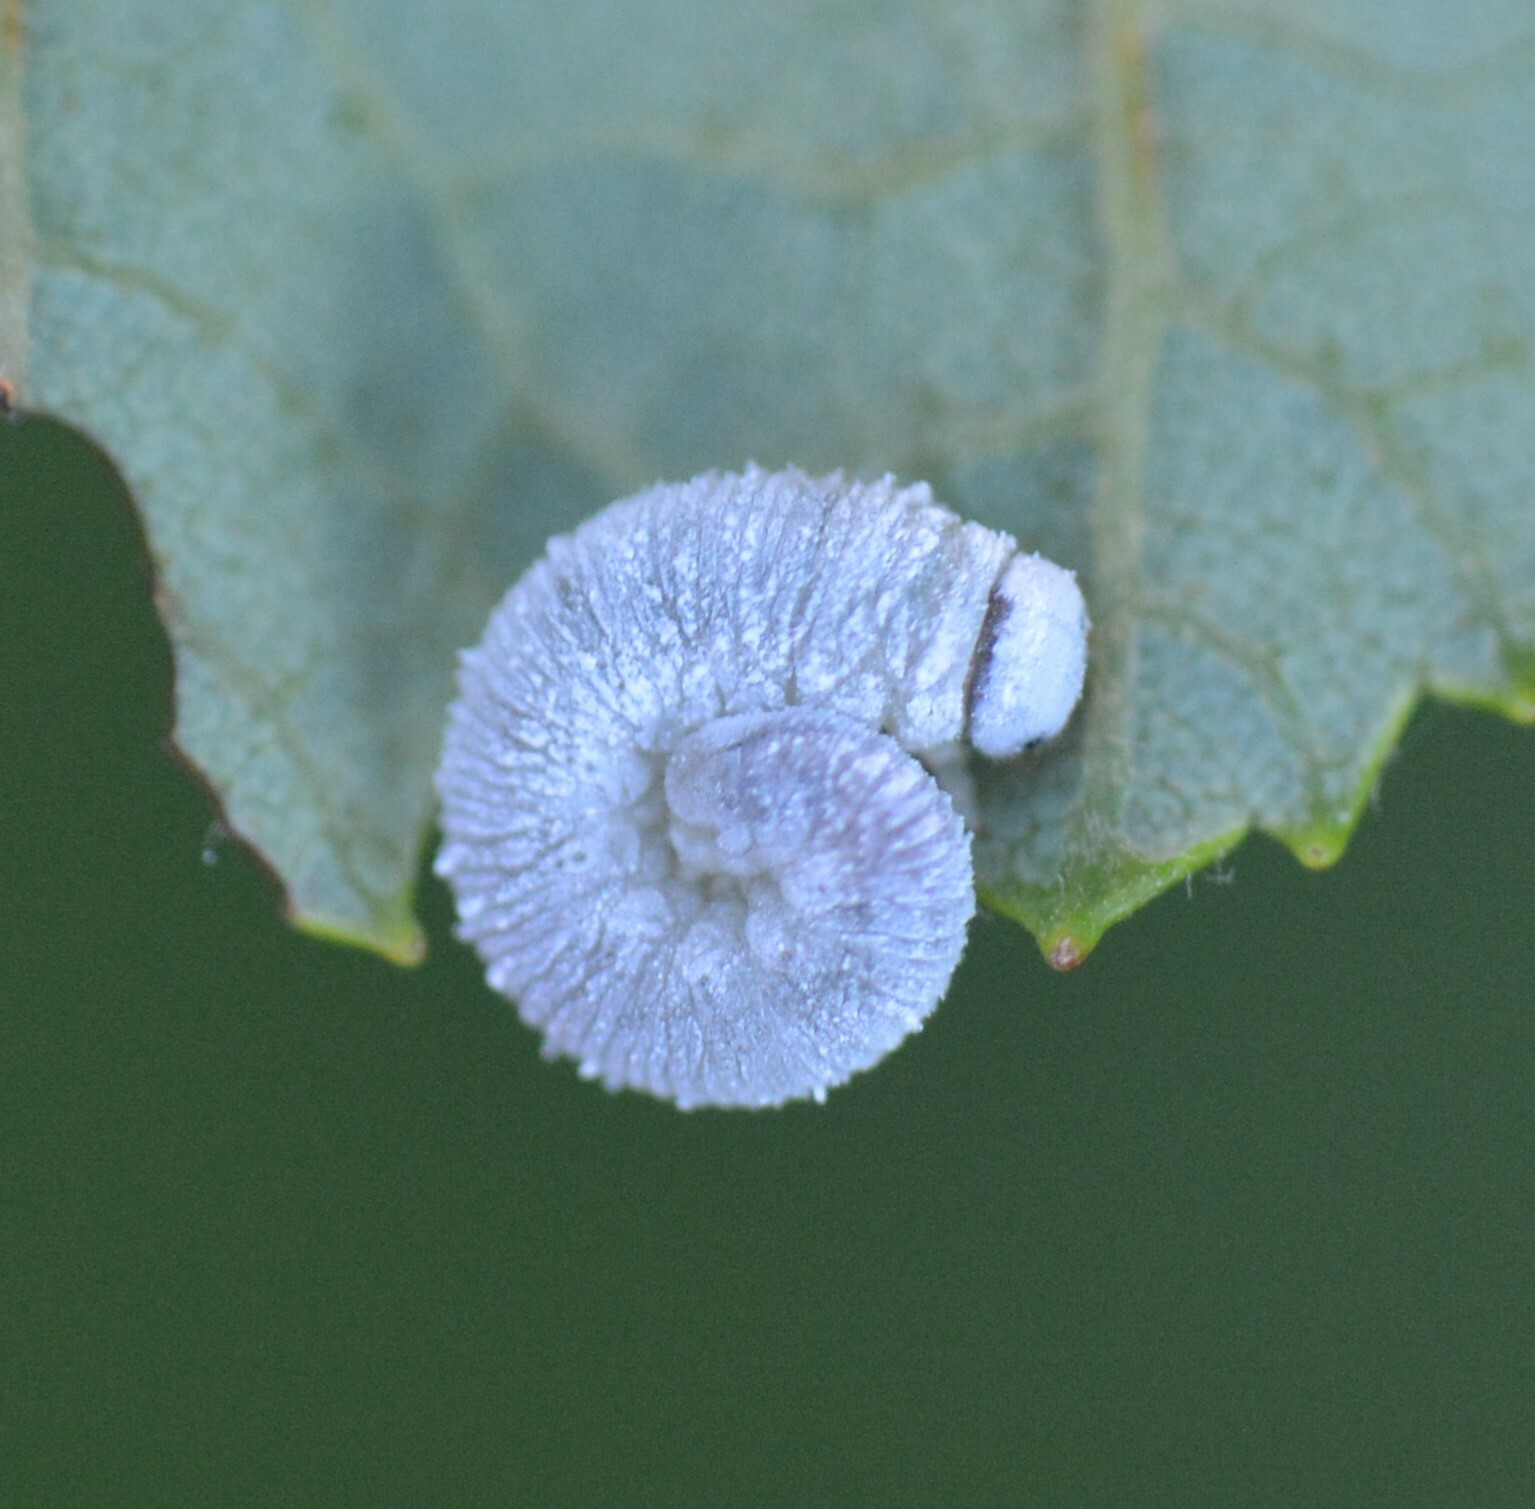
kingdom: Animalia
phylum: Arthropoda
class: Insecta
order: Hymenoptera
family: Tenthredinidae
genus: Eriocampa
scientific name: Eriocampa ovata
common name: Alder wooly sawfly
